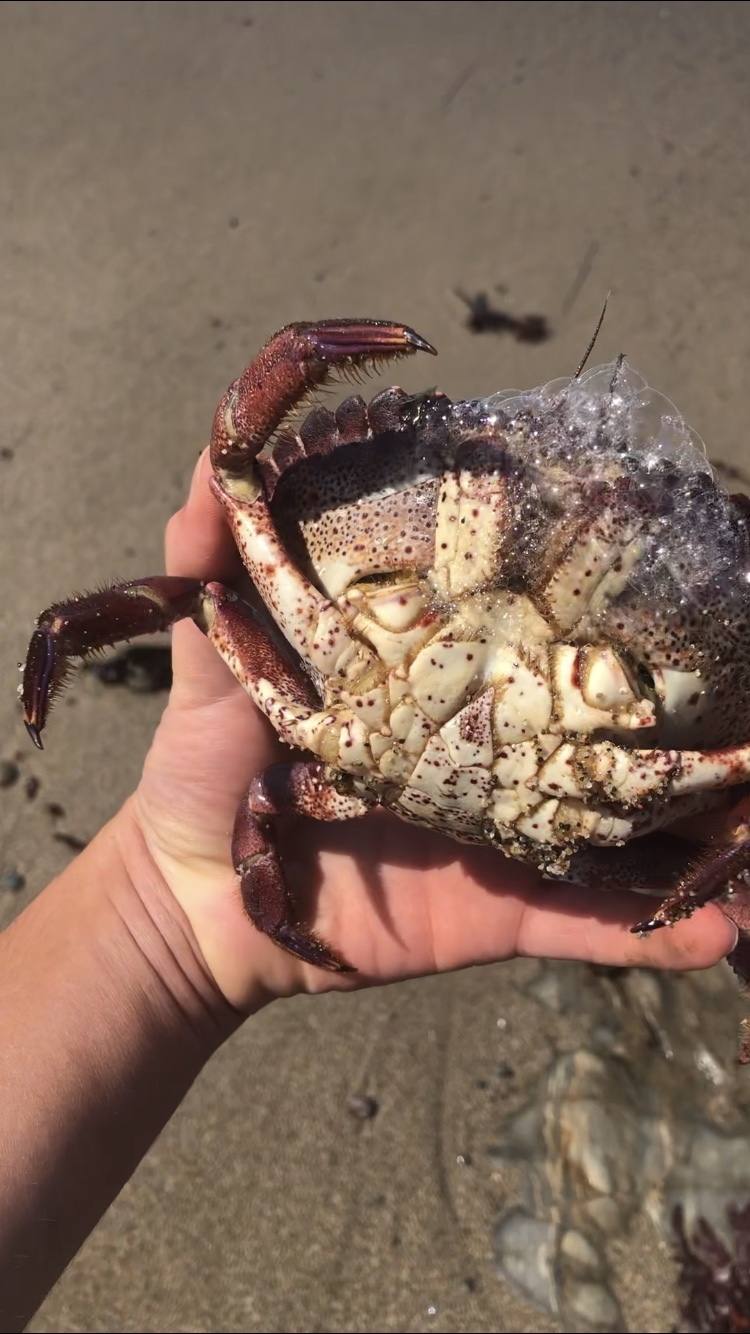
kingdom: Animalia
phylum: Arthropoda
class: Malacostraca
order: Decapoda
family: Cancridae
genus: Romaleon
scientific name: Romaleon antennarium
